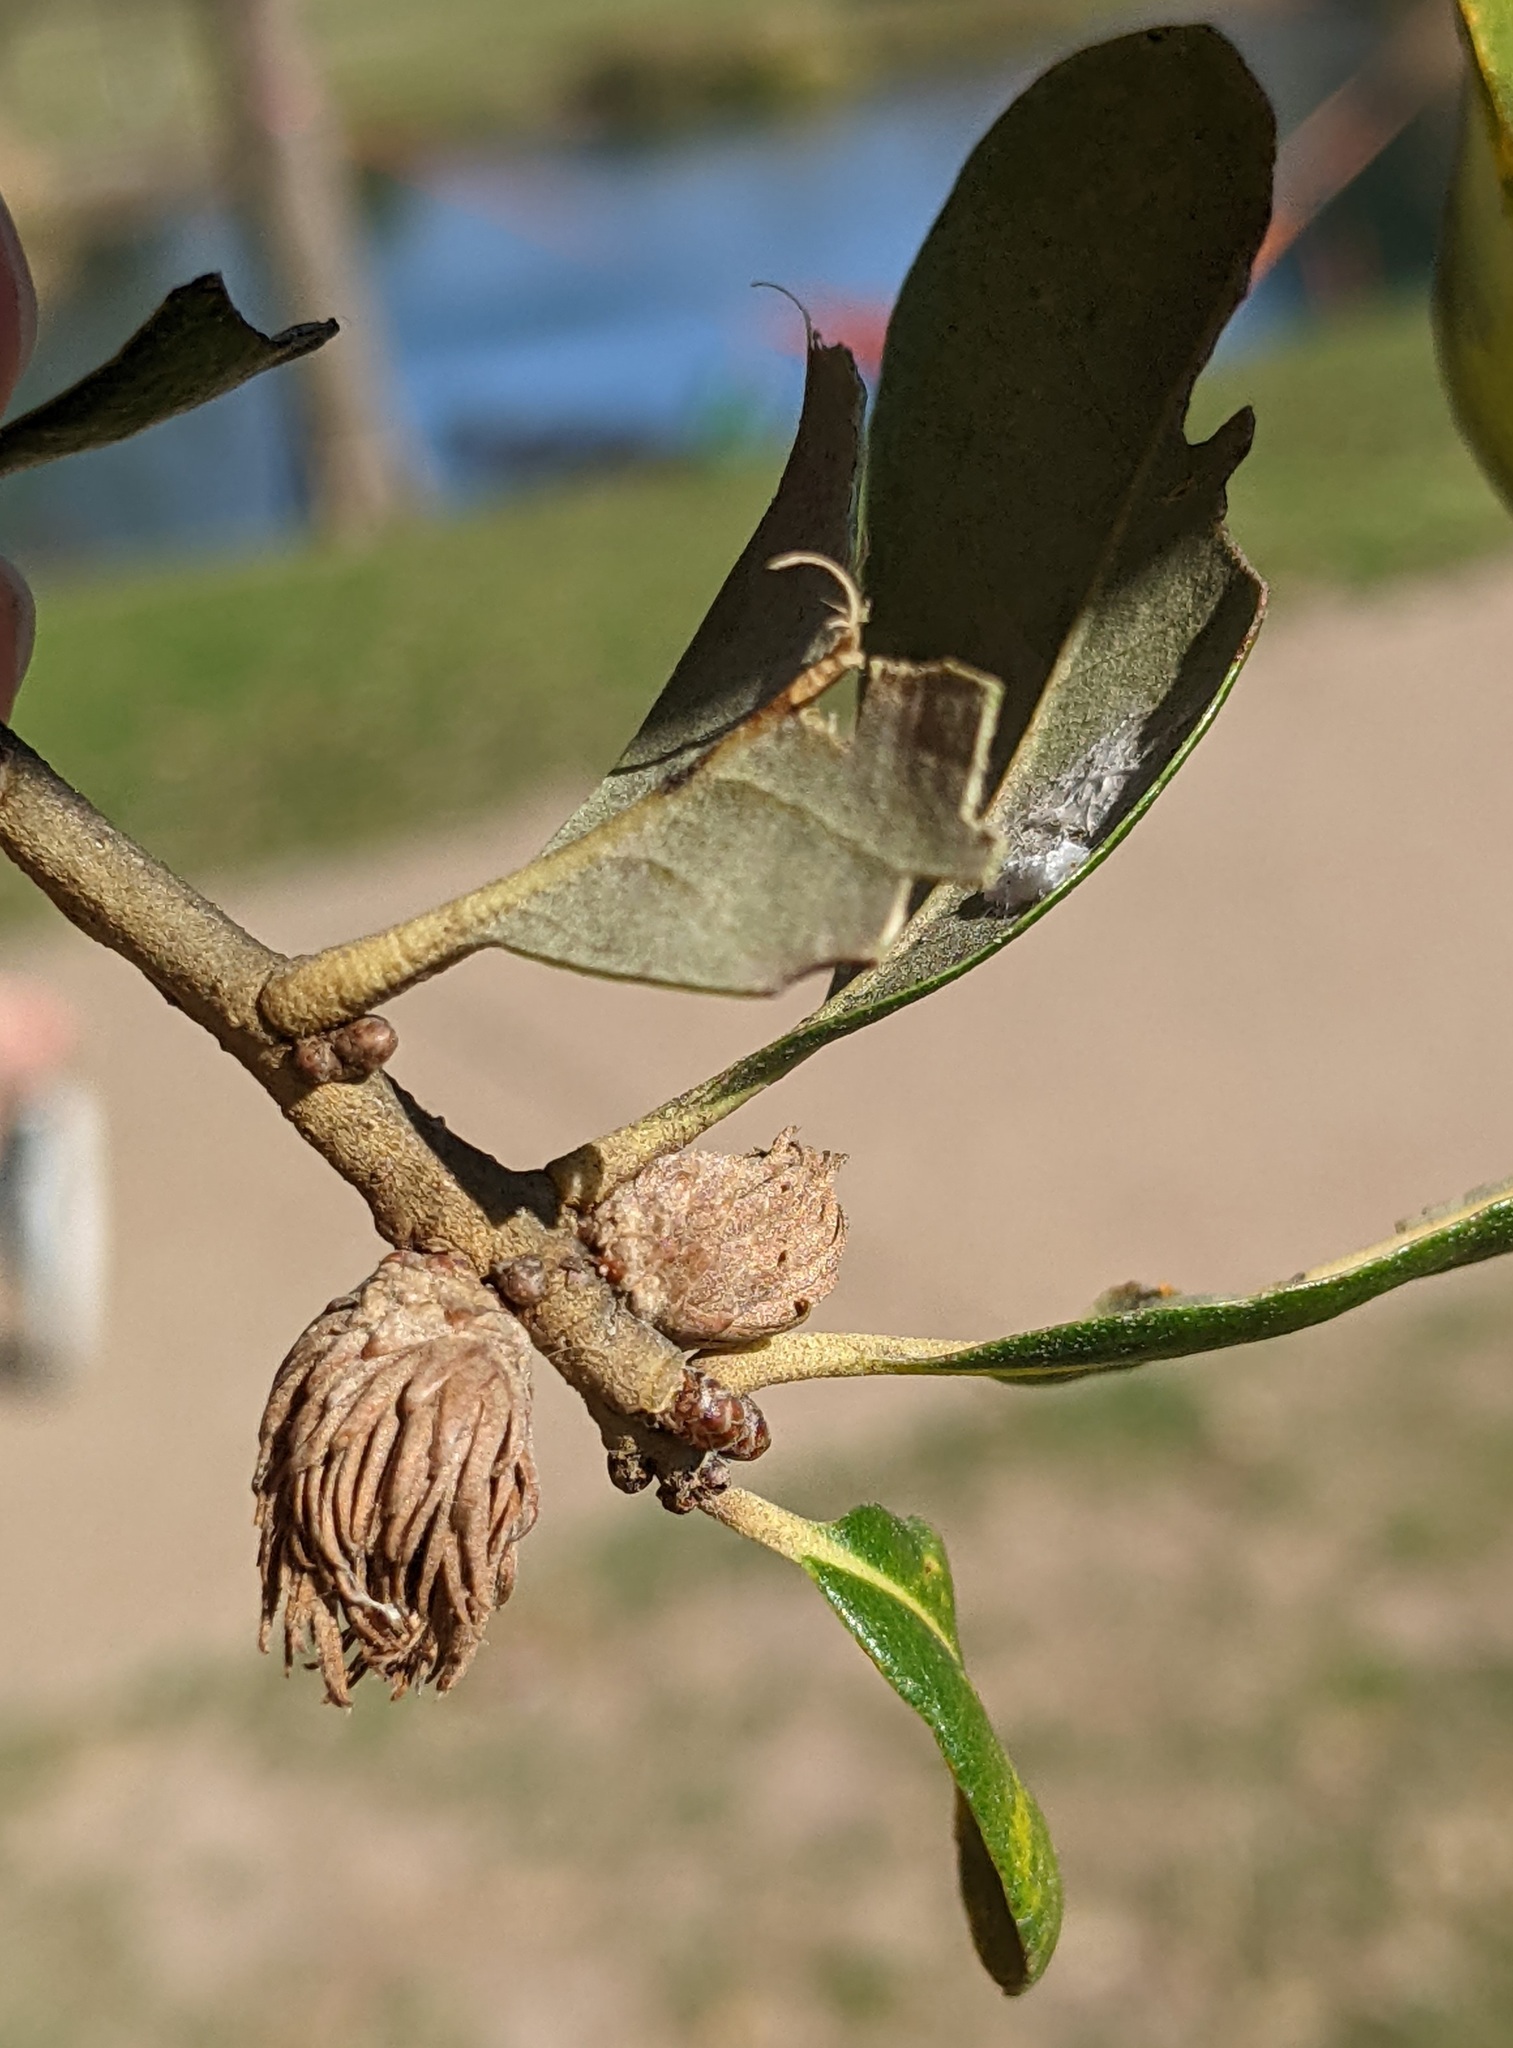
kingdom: Animalia
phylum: Arthropoda
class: Insecta
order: Hymenoptera
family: Cynipidae
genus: Andricus
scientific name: Andricus quercusfoliatus
